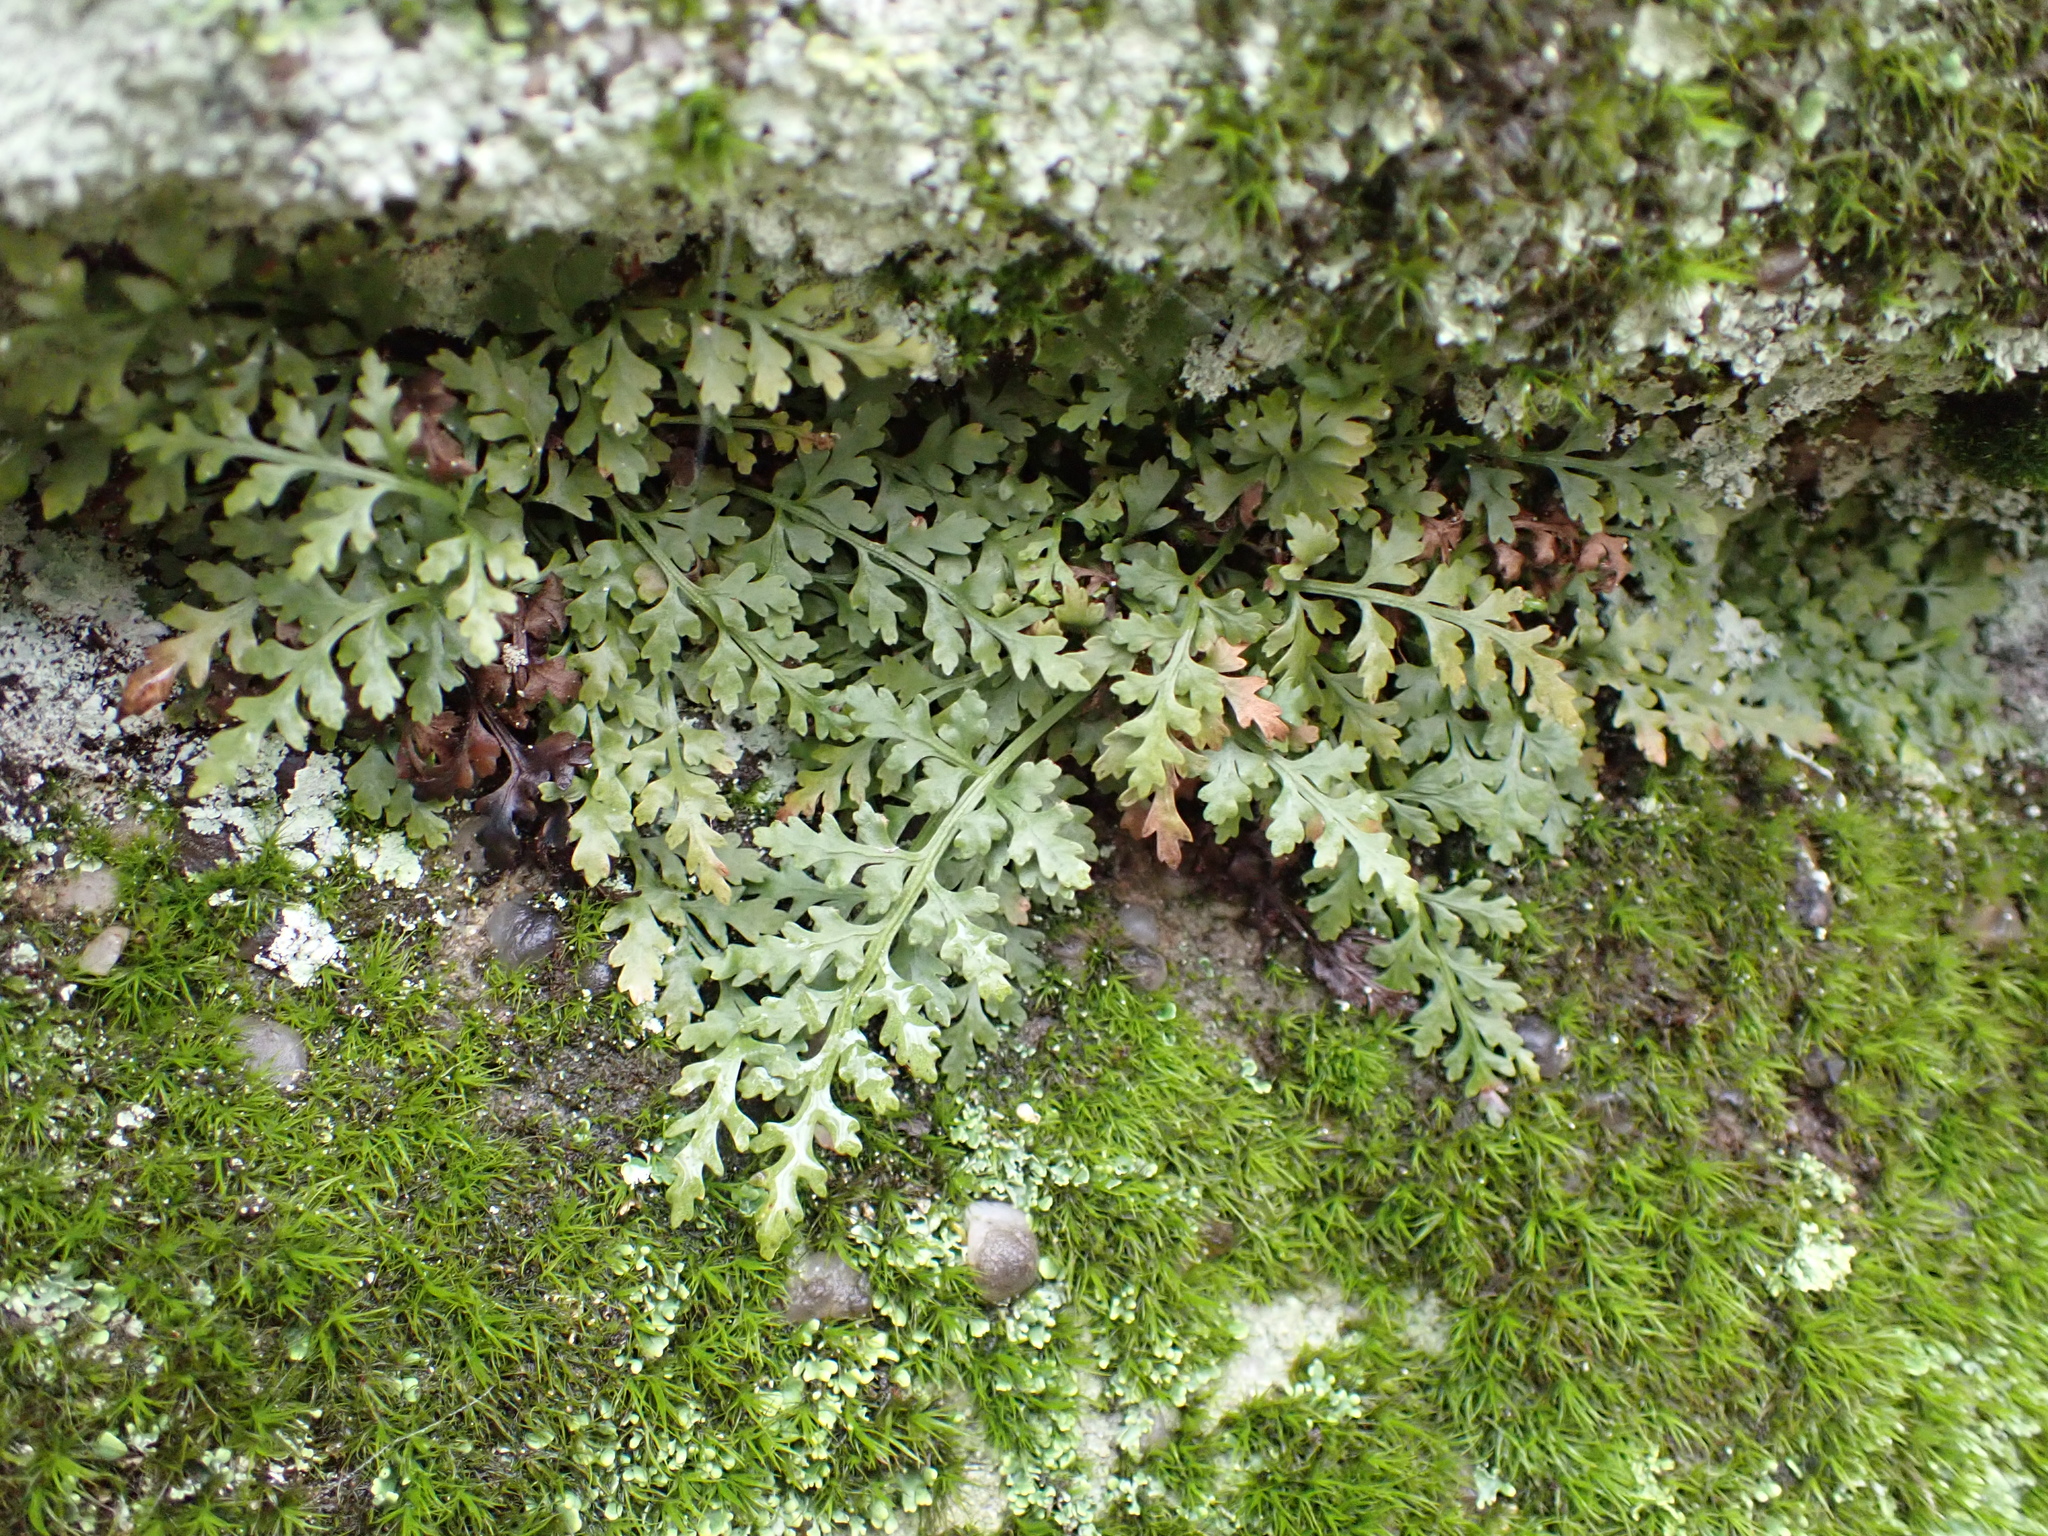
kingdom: Plantae
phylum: Tracheophyta
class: Polypodiopsida
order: Polypodiales
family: Aspleniaceae
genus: Asplenium
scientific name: Asplenium montanum
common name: Mountain spleenwort
